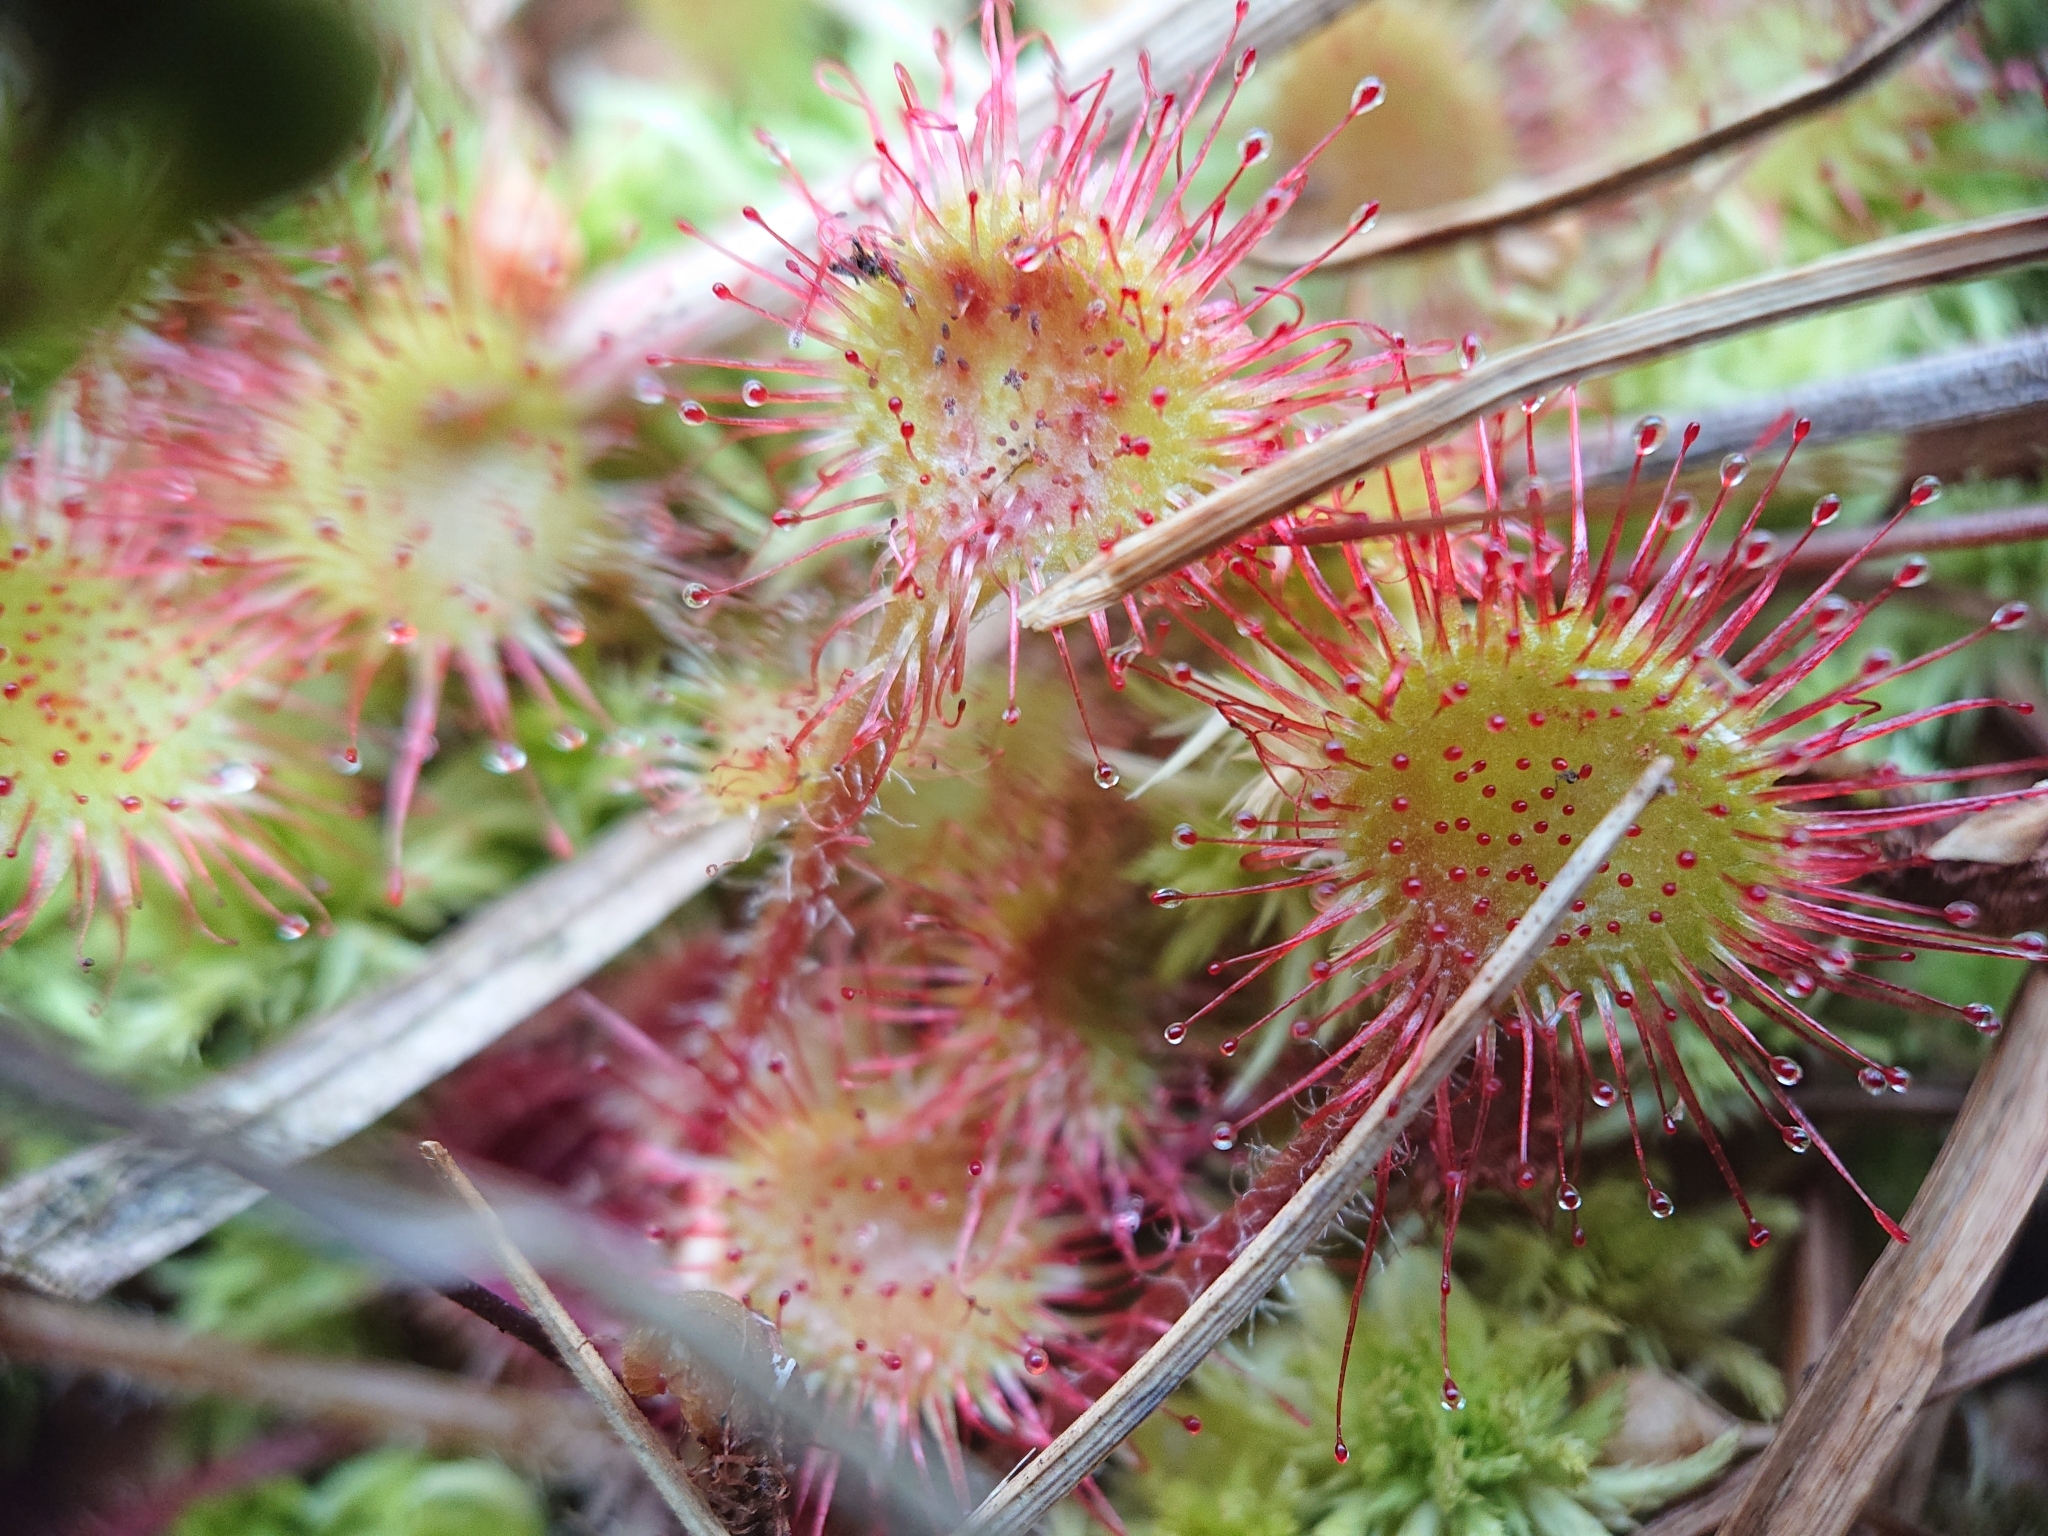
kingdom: Plantae
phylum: Tracheophyta
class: Magnoliopsida
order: Caryophyllales
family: Droseraceae
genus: Drosera
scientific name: Drosera rotundifolia
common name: Round-leaved sundew
